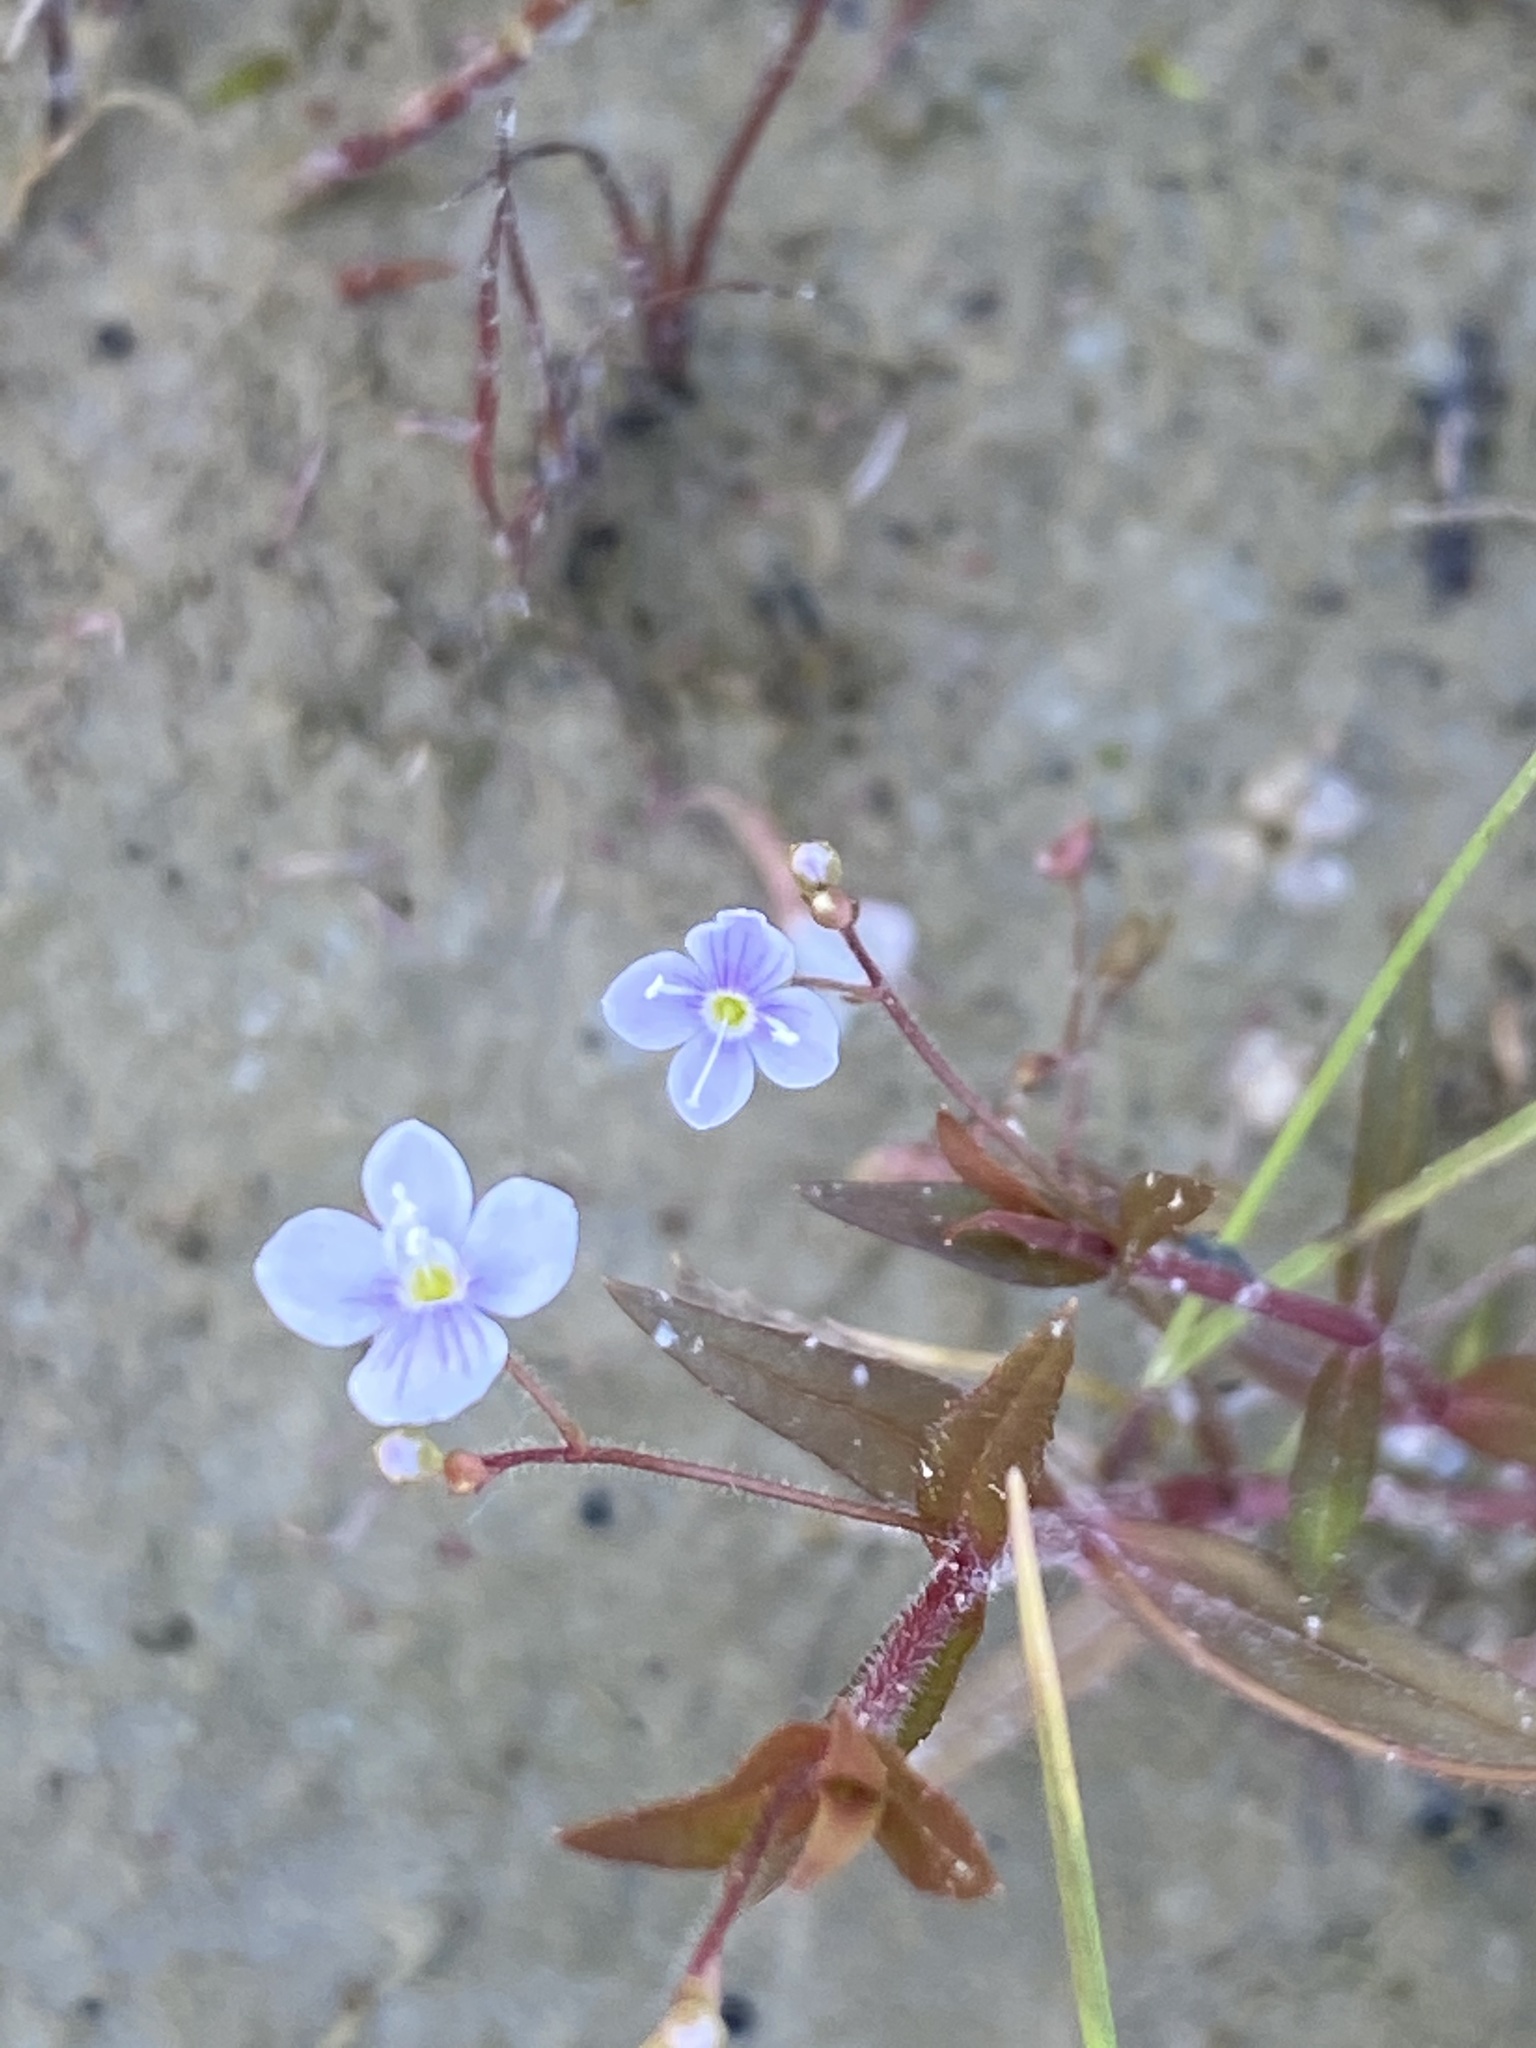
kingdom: Plantae
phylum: Tracheophyta
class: Magnoliopsida
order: Lamiales
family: Plantaginaceae
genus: Veronica
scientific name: Veronica scutellata
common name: Marsh speedwell
